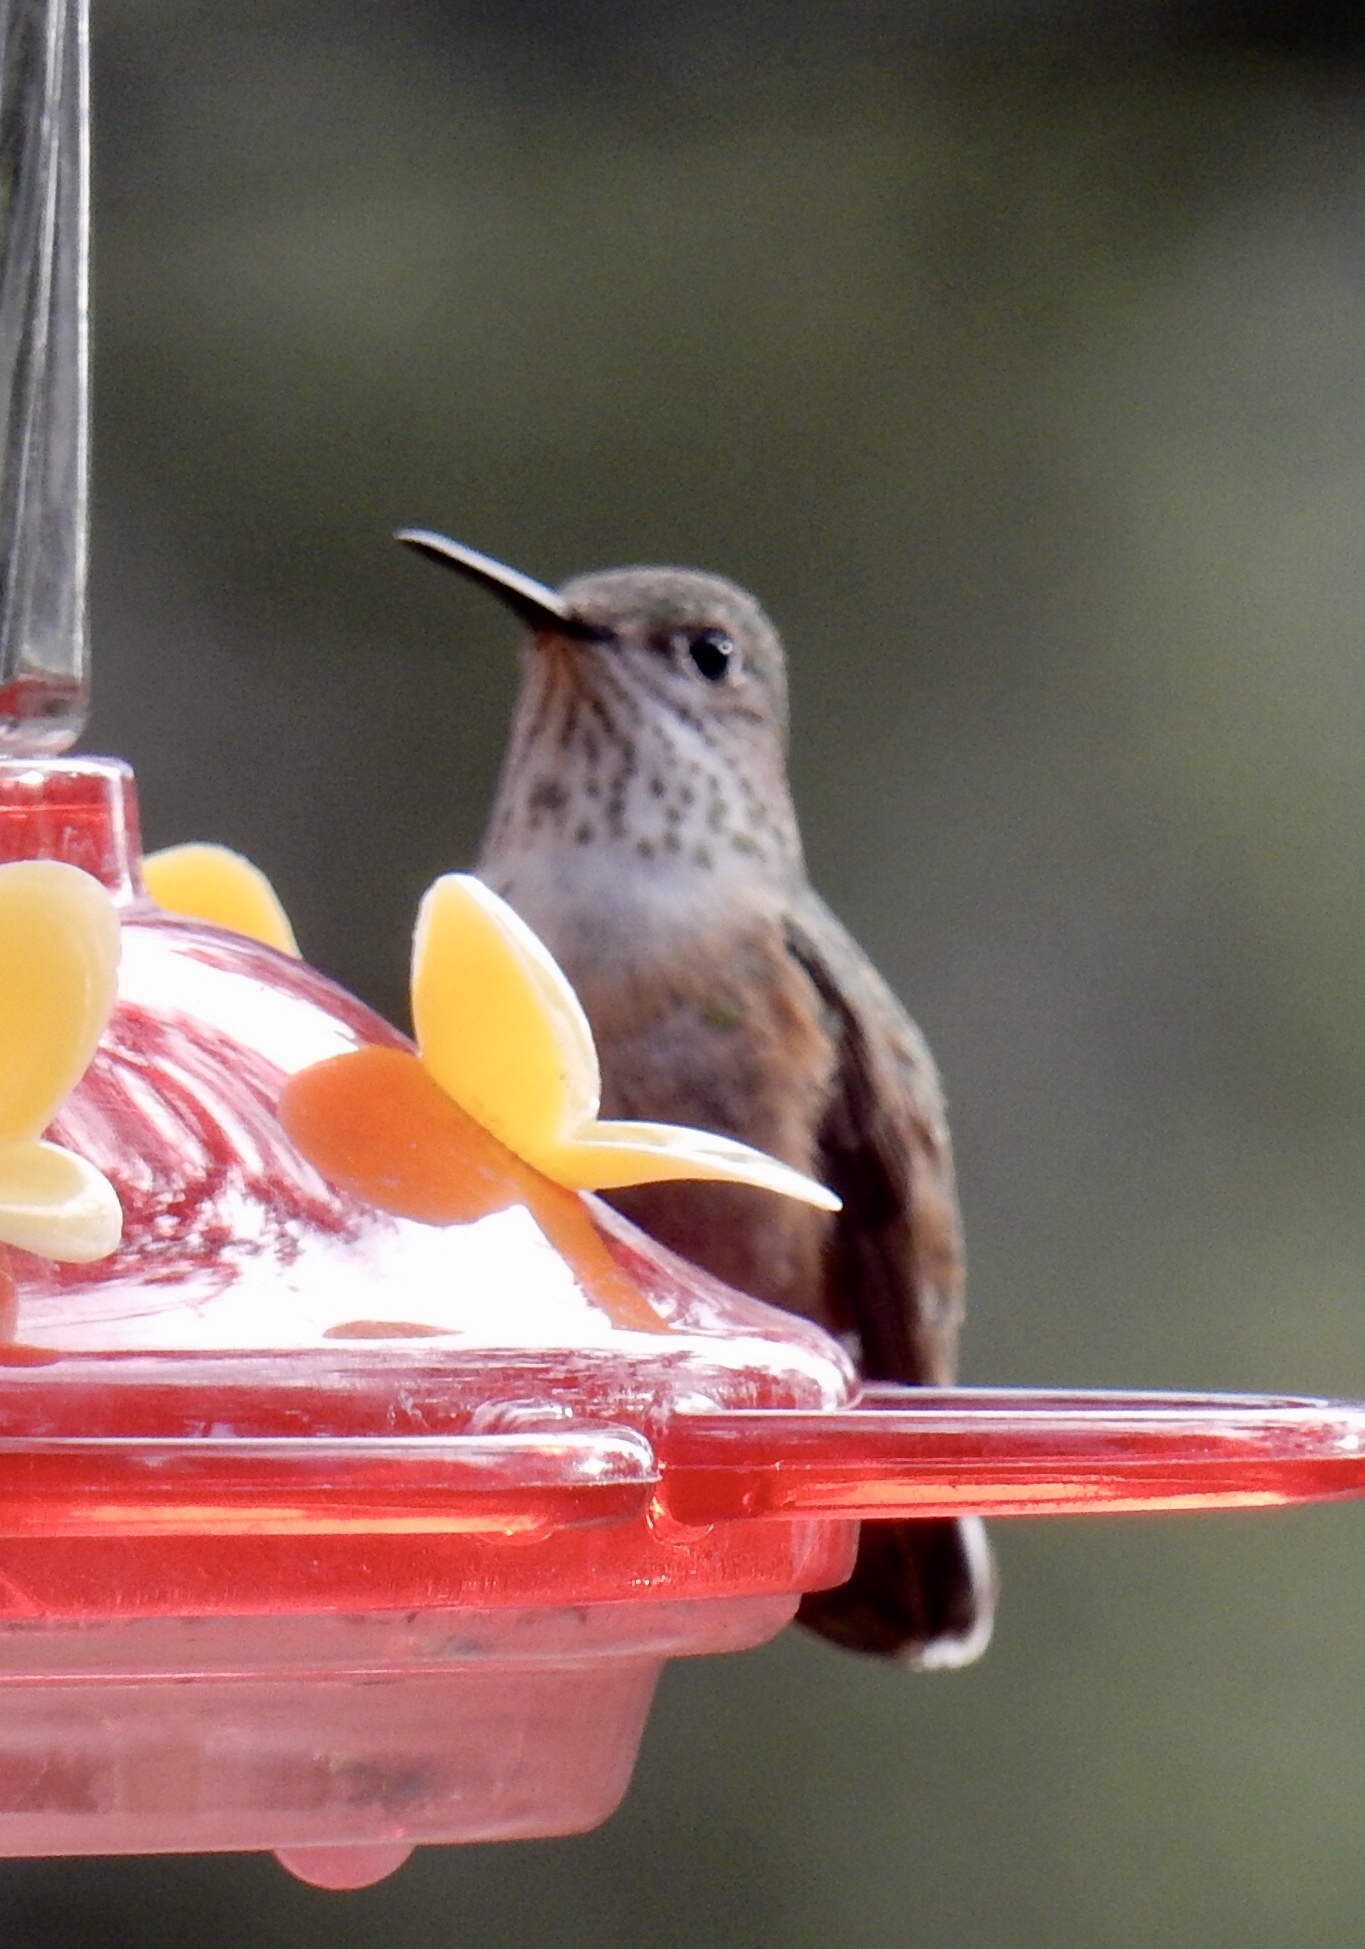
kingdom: Animalia
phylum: Chordata
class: Aves
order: Apodiformes
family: Trochilidae
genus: Selasphorus
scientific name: Selasphorus platycercus
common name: Broad-tailed hummingbird
